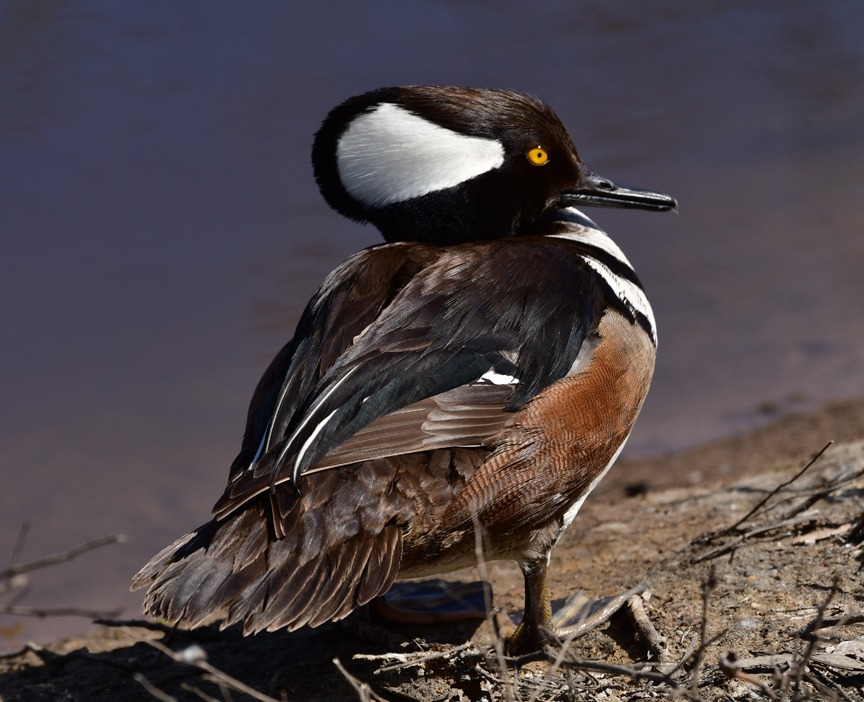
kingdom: Animalia
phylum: Chordata
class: Aves
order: Anseriformes
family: Anatidae
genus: Lophodytes
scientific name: Lophodytes cucullatus
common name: Hooded merganser
